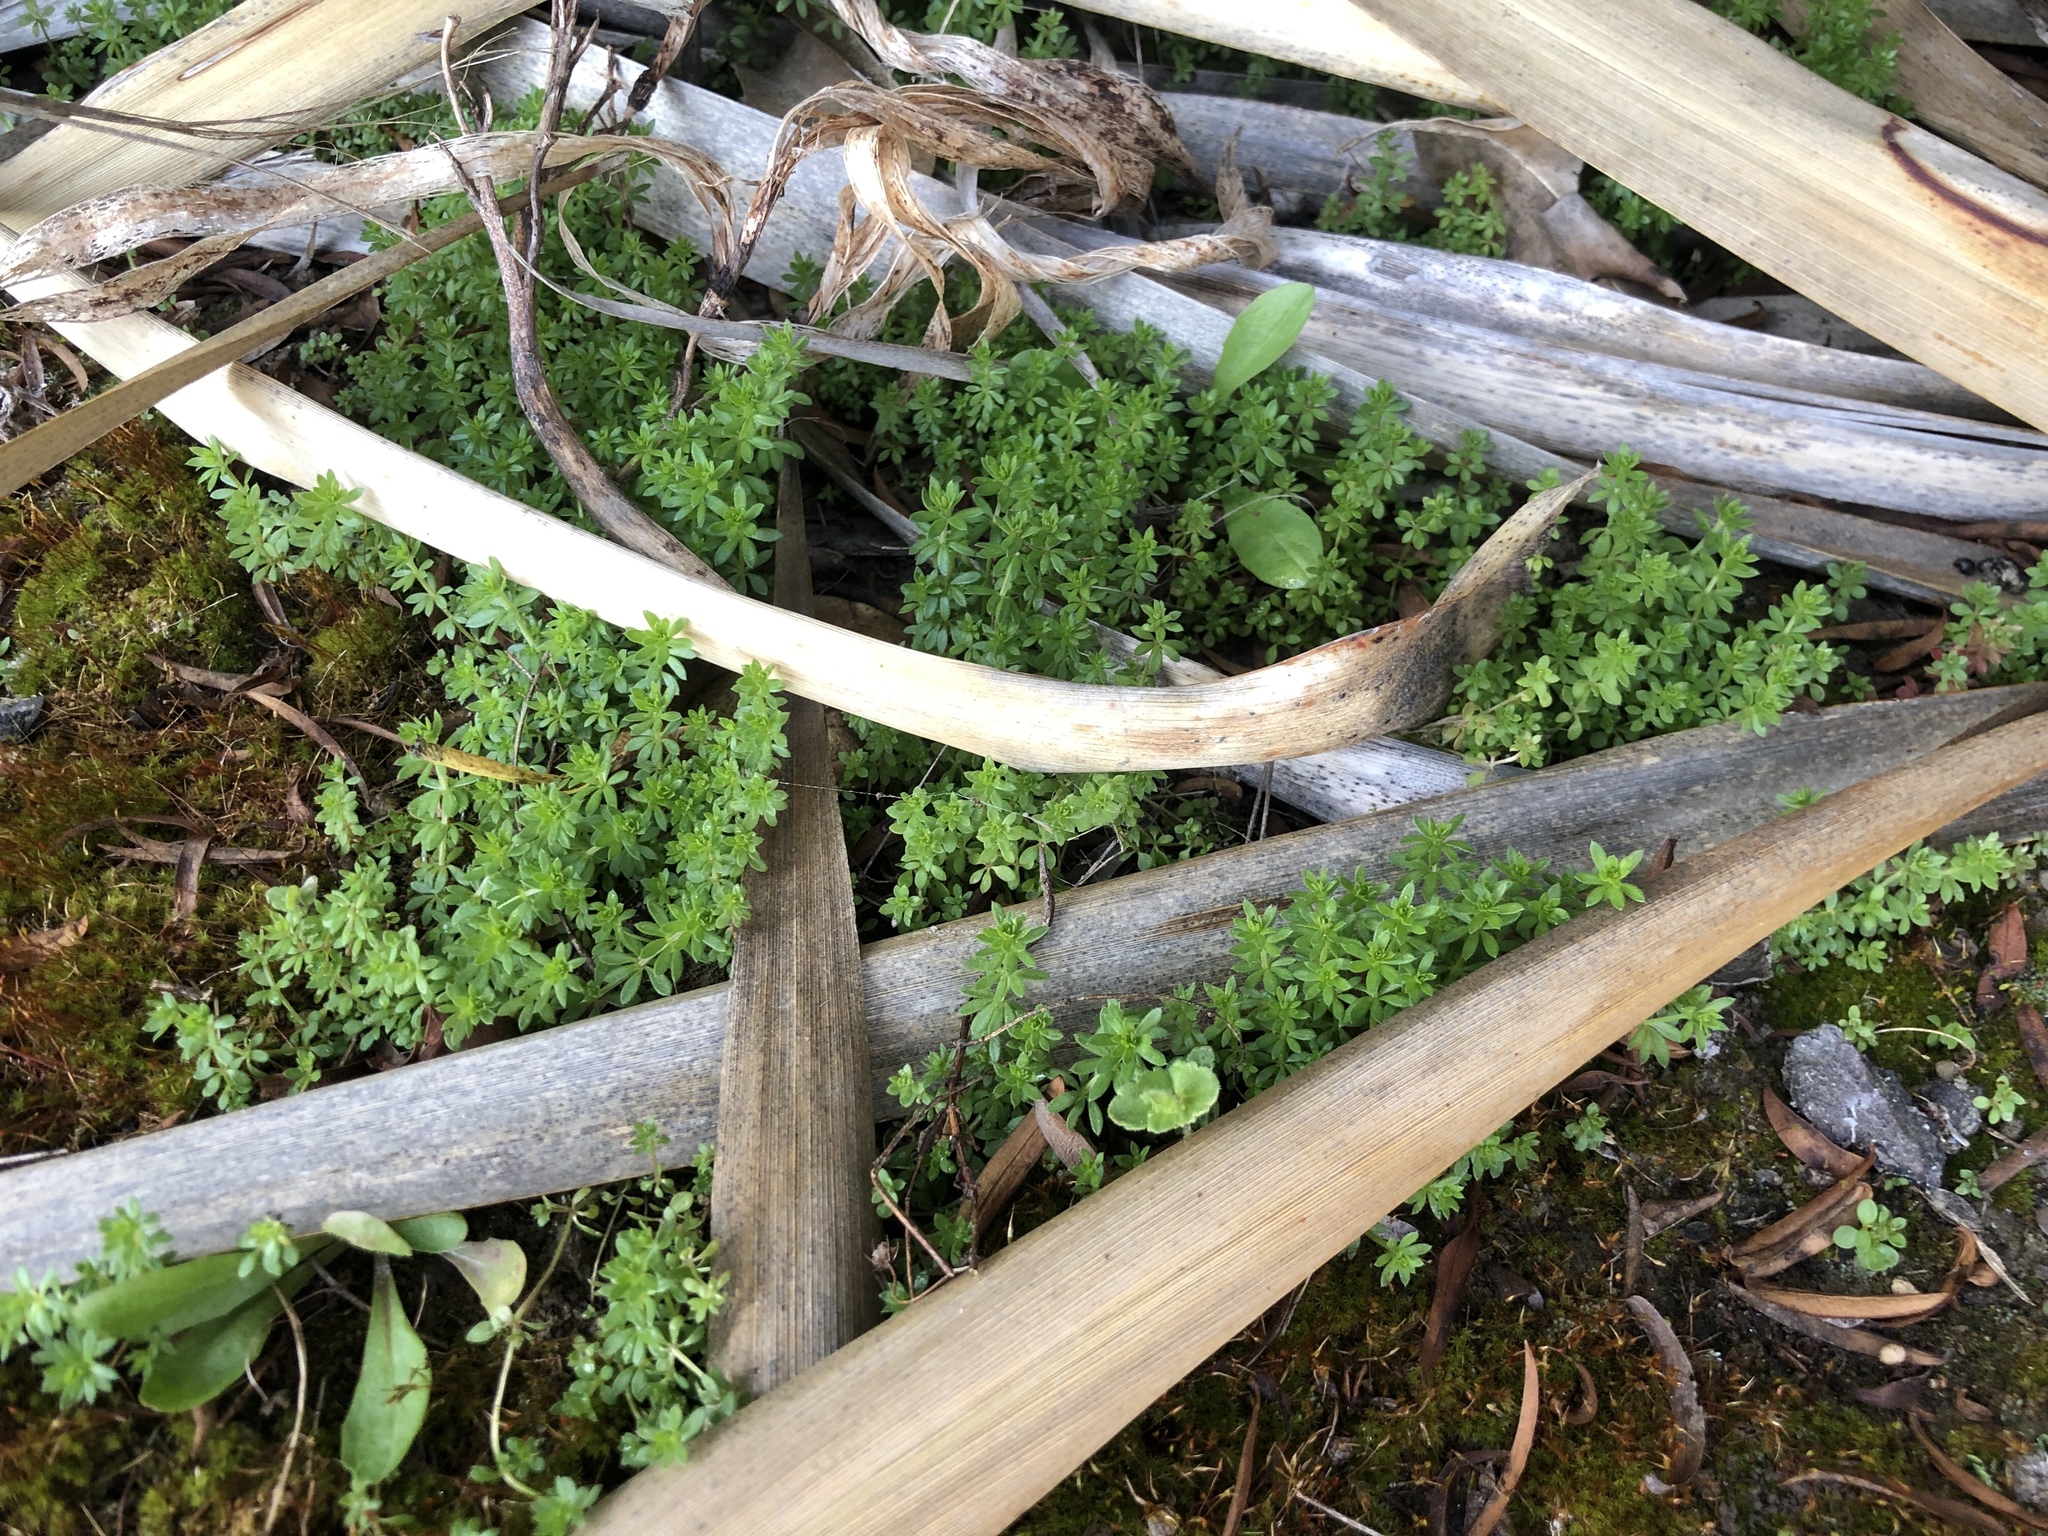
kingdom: Plantae
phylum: Tracheophyta
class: Magnoliopsida
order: Gentianales
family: Rubiaceae
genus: Galium
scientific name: Galium aparine
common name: Cleavers
